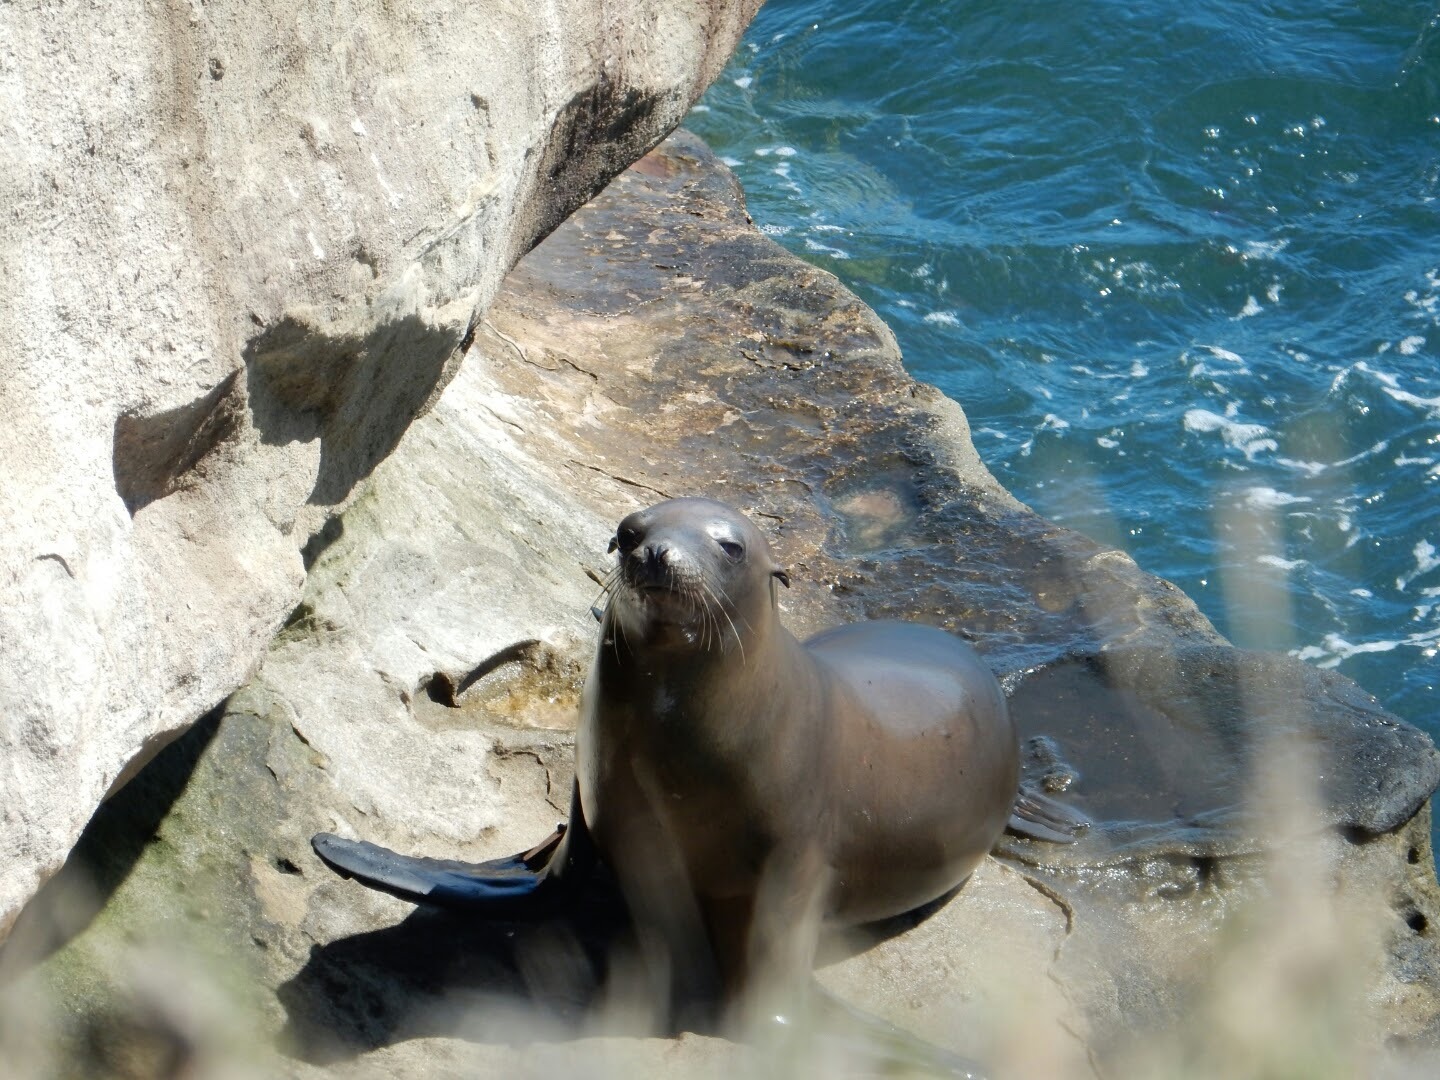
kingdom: Animalia
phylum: Chordata
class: Mammalia
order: Carnivora
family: Otariidae
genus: Zalophus
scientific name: Zalophus californianus
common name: California sea lion
